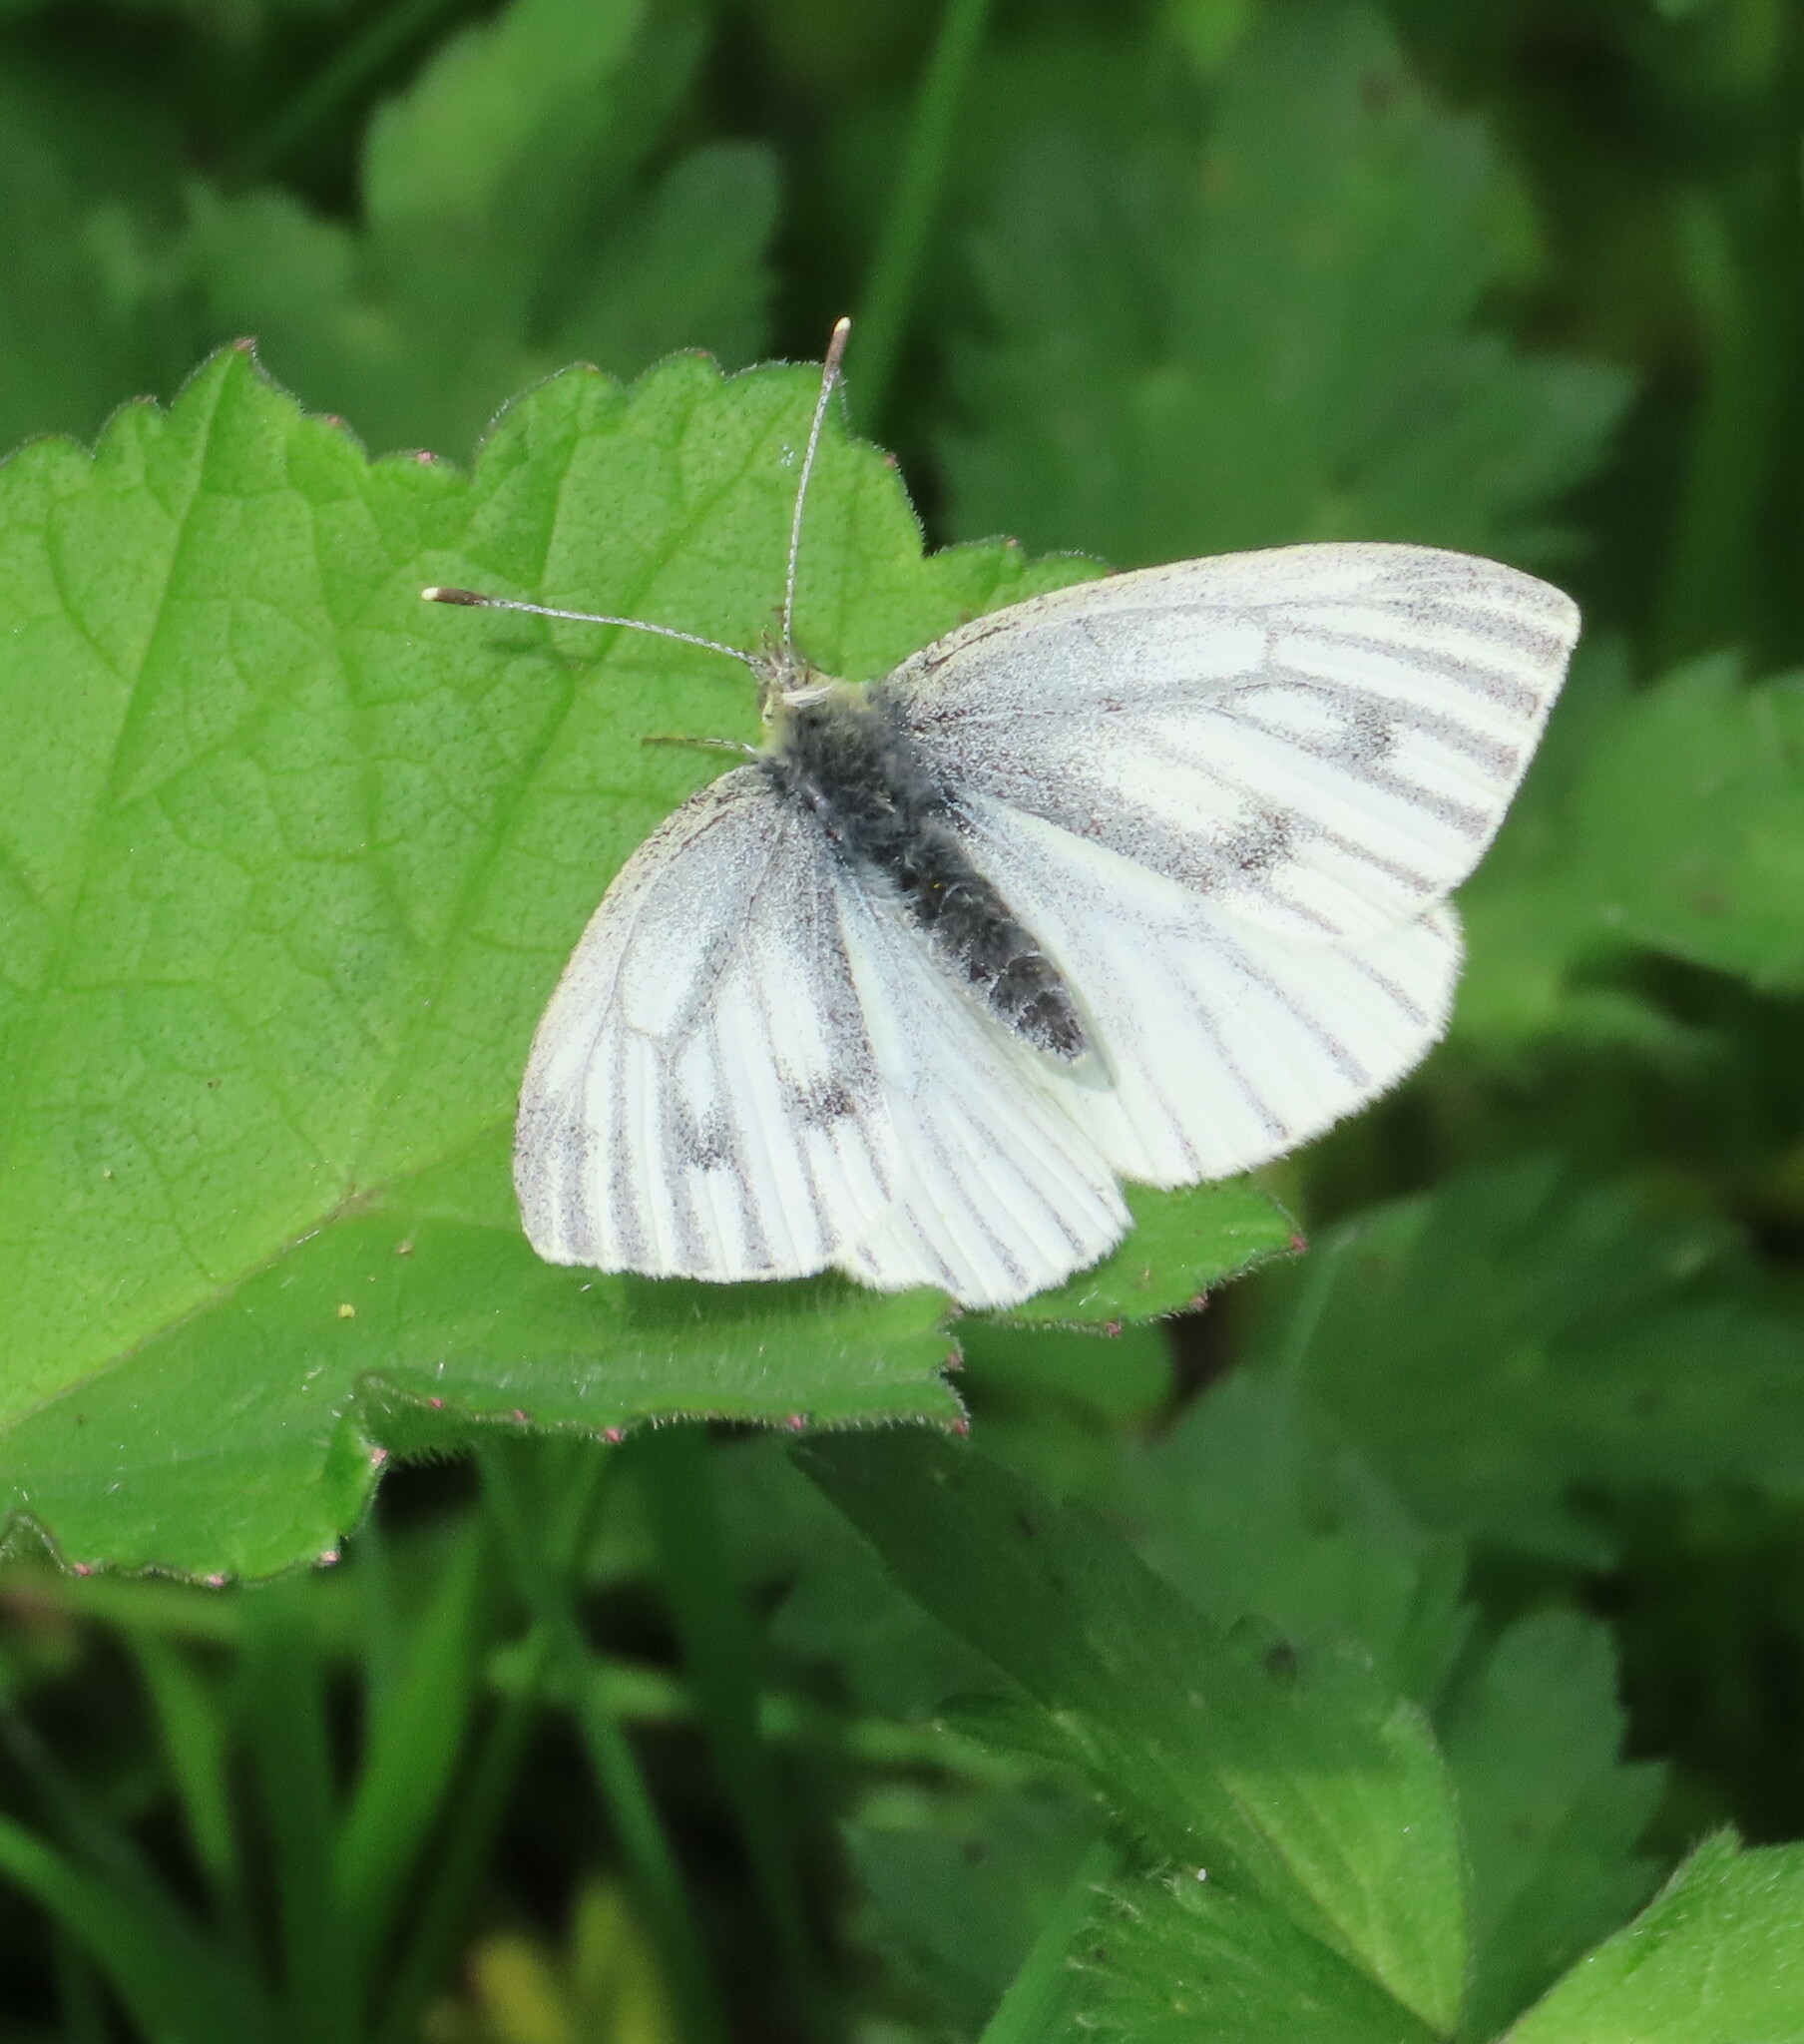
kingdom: Animalia
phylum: Arthropoda
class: Insecta
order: Lepidoptera
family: Pieridae
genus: Pieris
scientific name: Pieris napi
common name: Green-veined white
